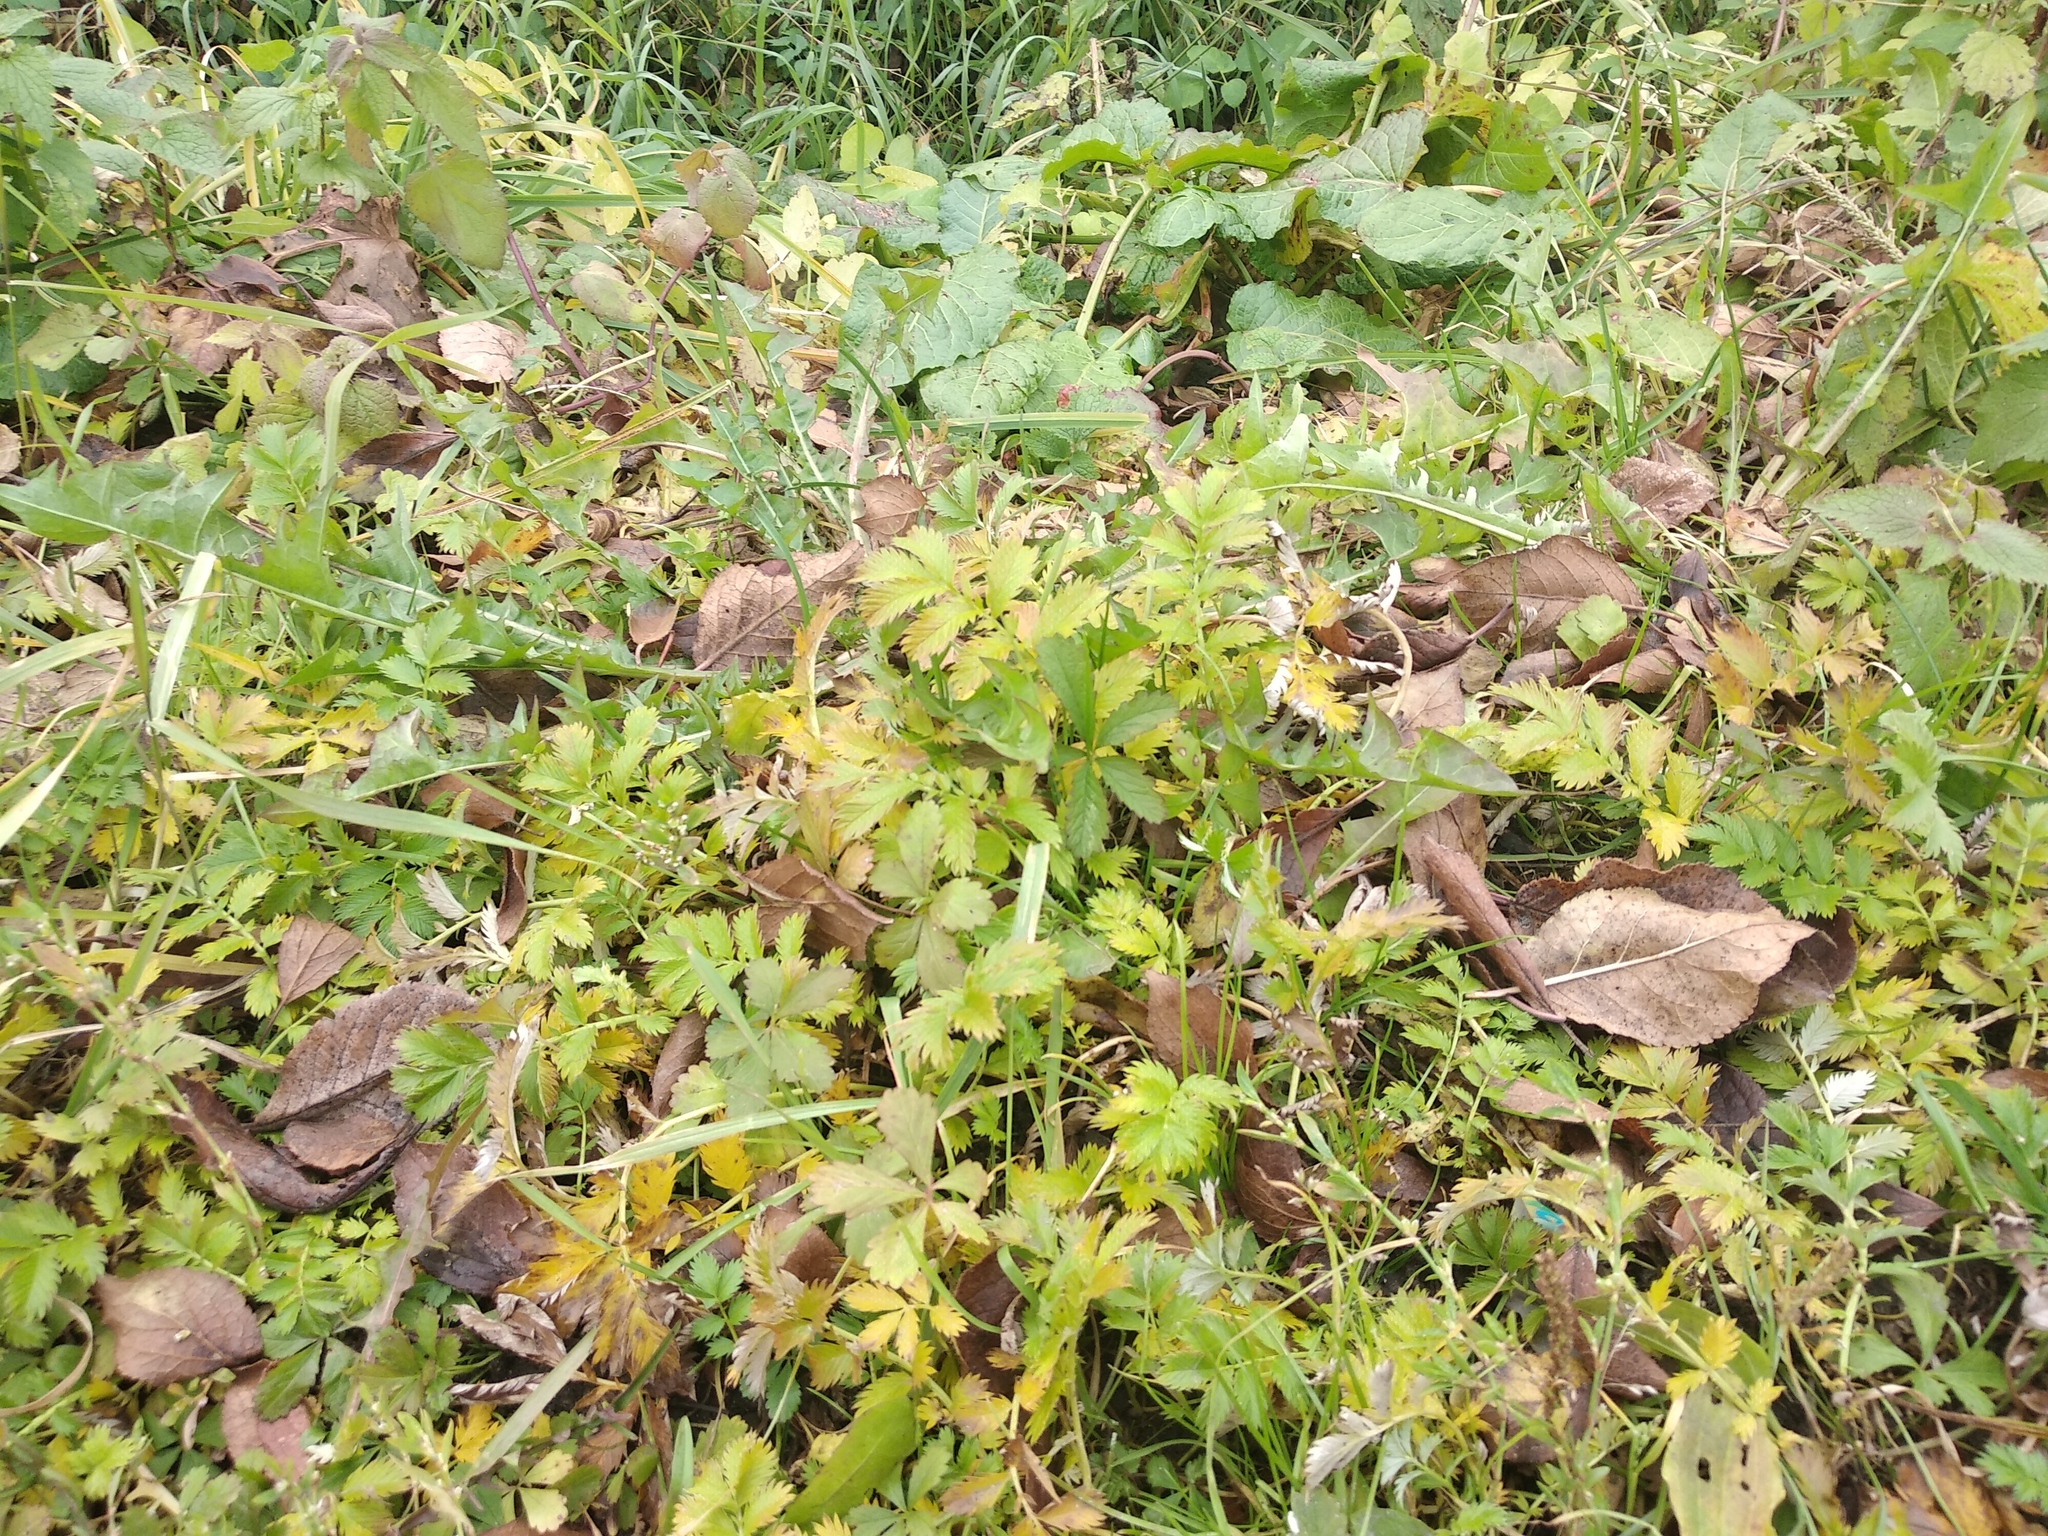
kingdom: Plantae
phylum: Tracheophyta
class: Magnoliopsida
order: Rosales
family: Rosaceae
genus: Argentina
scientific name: Argentina anserina
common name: Common silverweed
